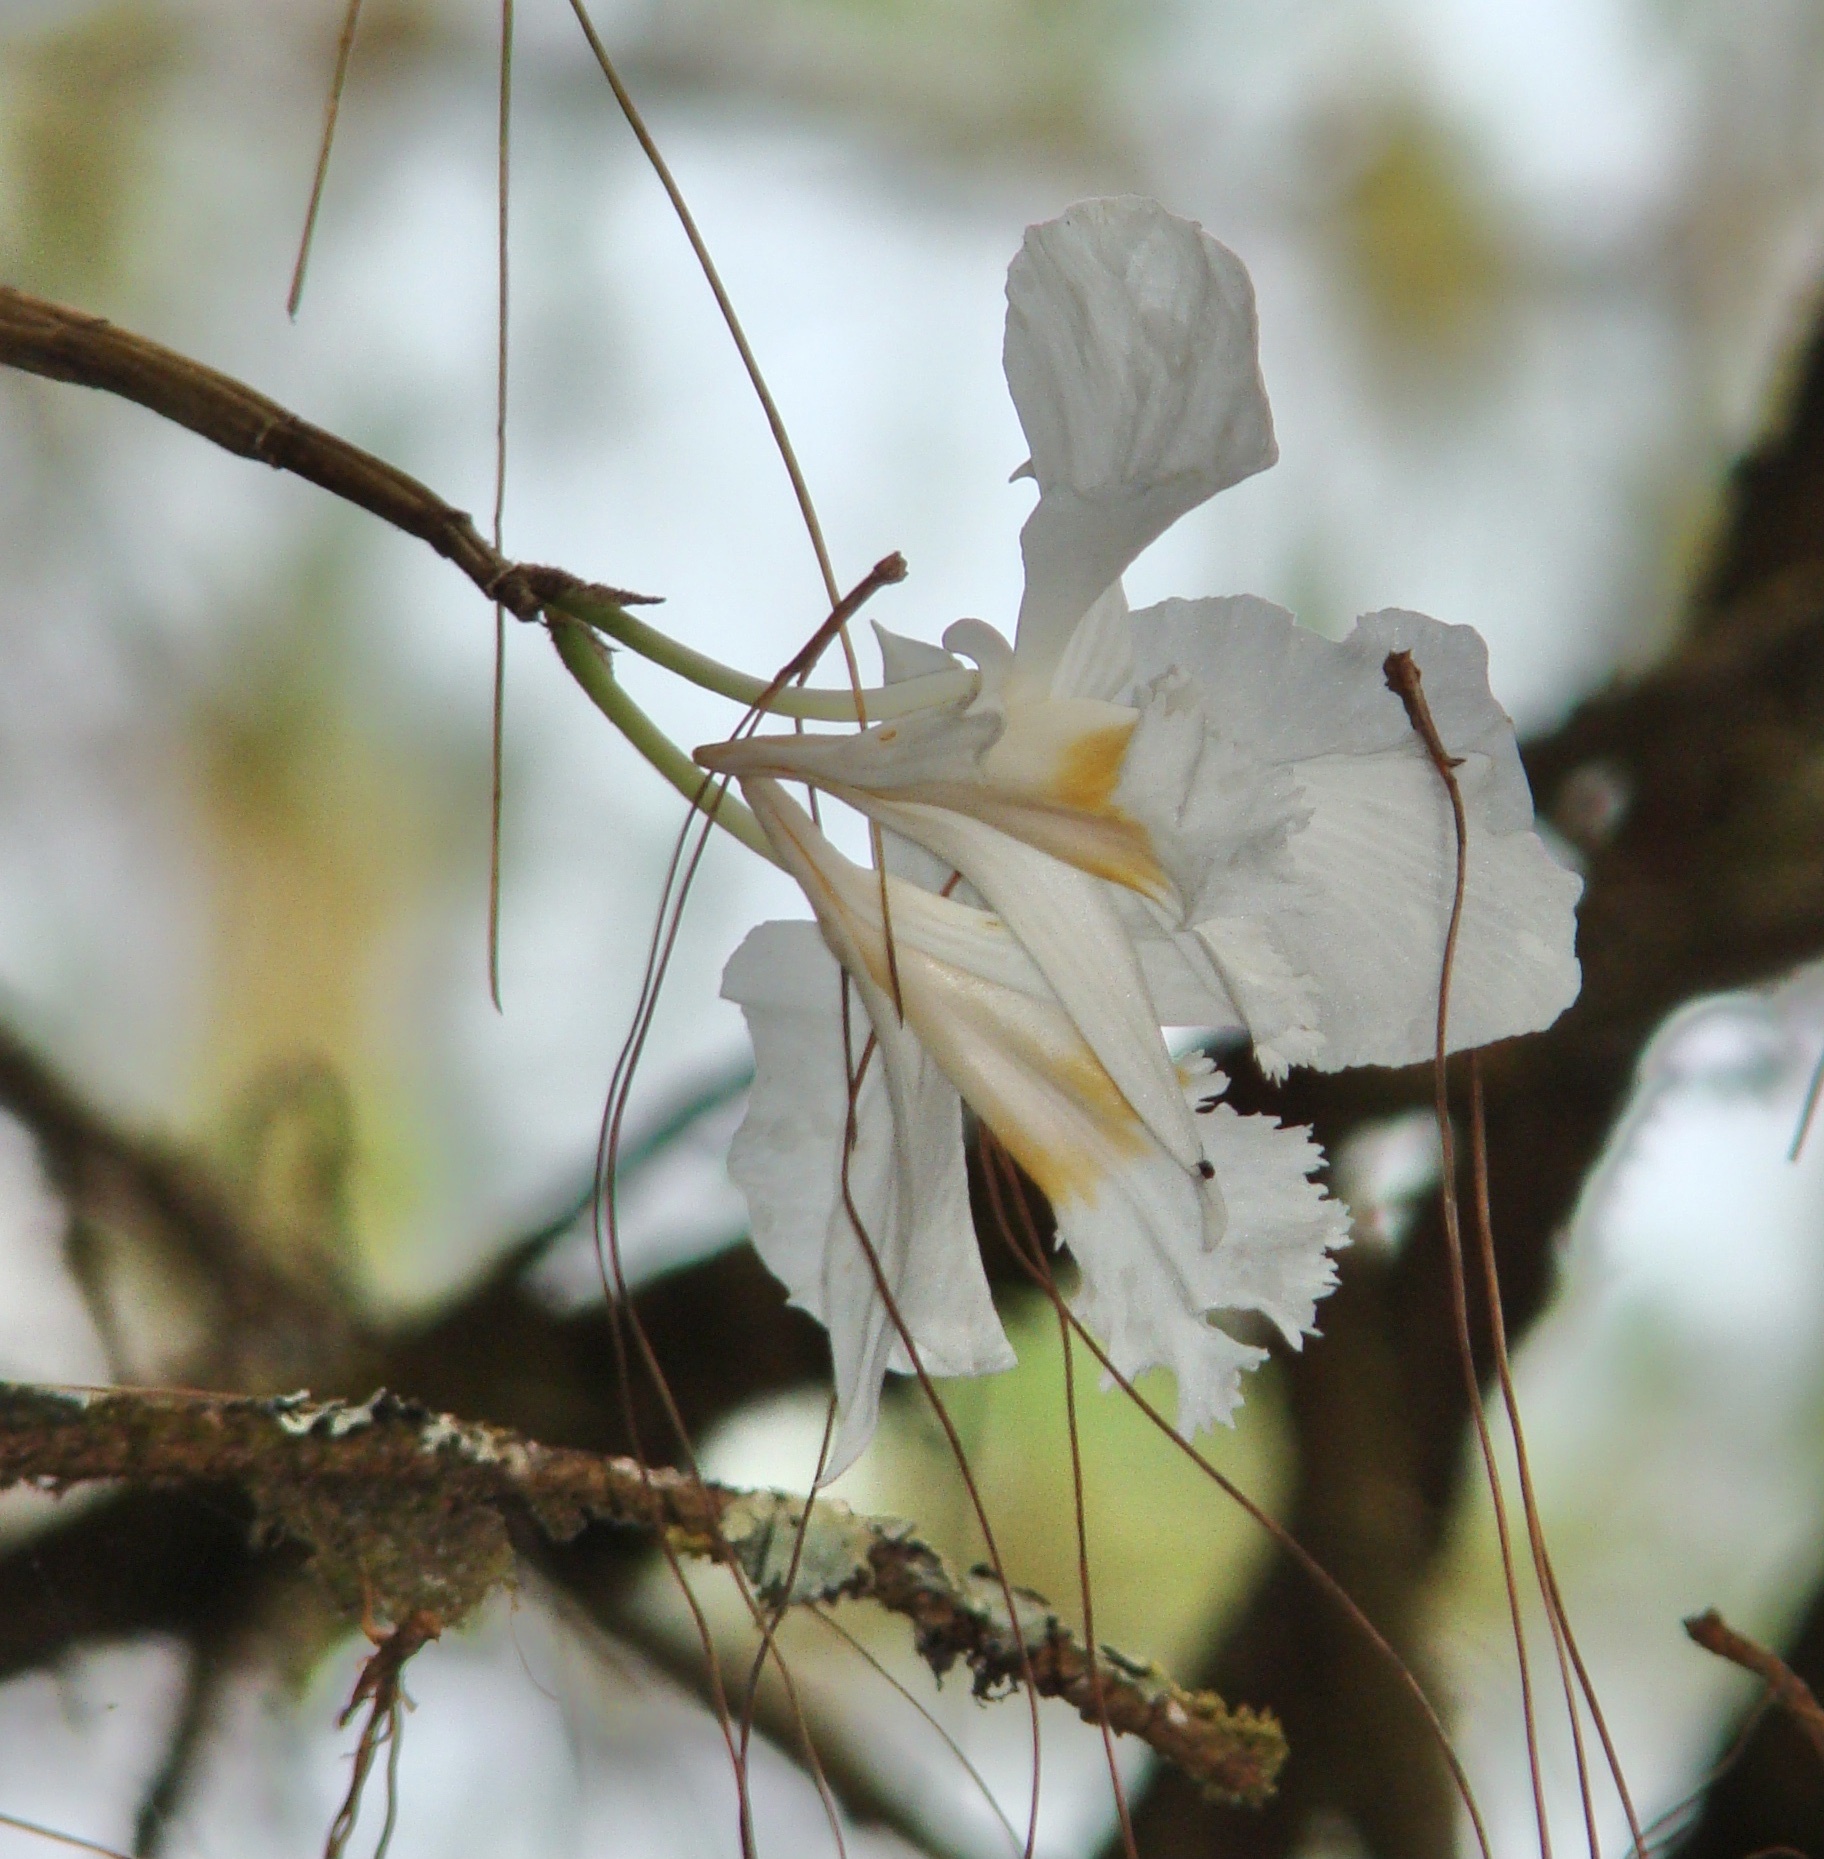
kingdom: Plantae
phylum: Tracheophyta
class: Liliopsida
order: Asparagales
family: Orchidaceae
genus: Dendrobium
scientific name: Dendrobium infundibulum
